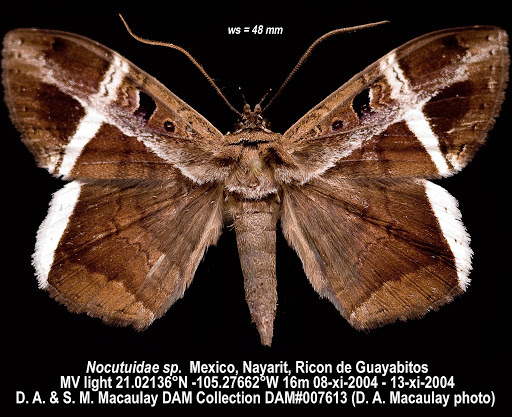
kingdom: Animalia
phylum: Arthropoda
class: Insecta
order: Lepidoptera
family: Erebidae
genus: Hemeroblemma
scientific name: Hemeroblemma mexicana
